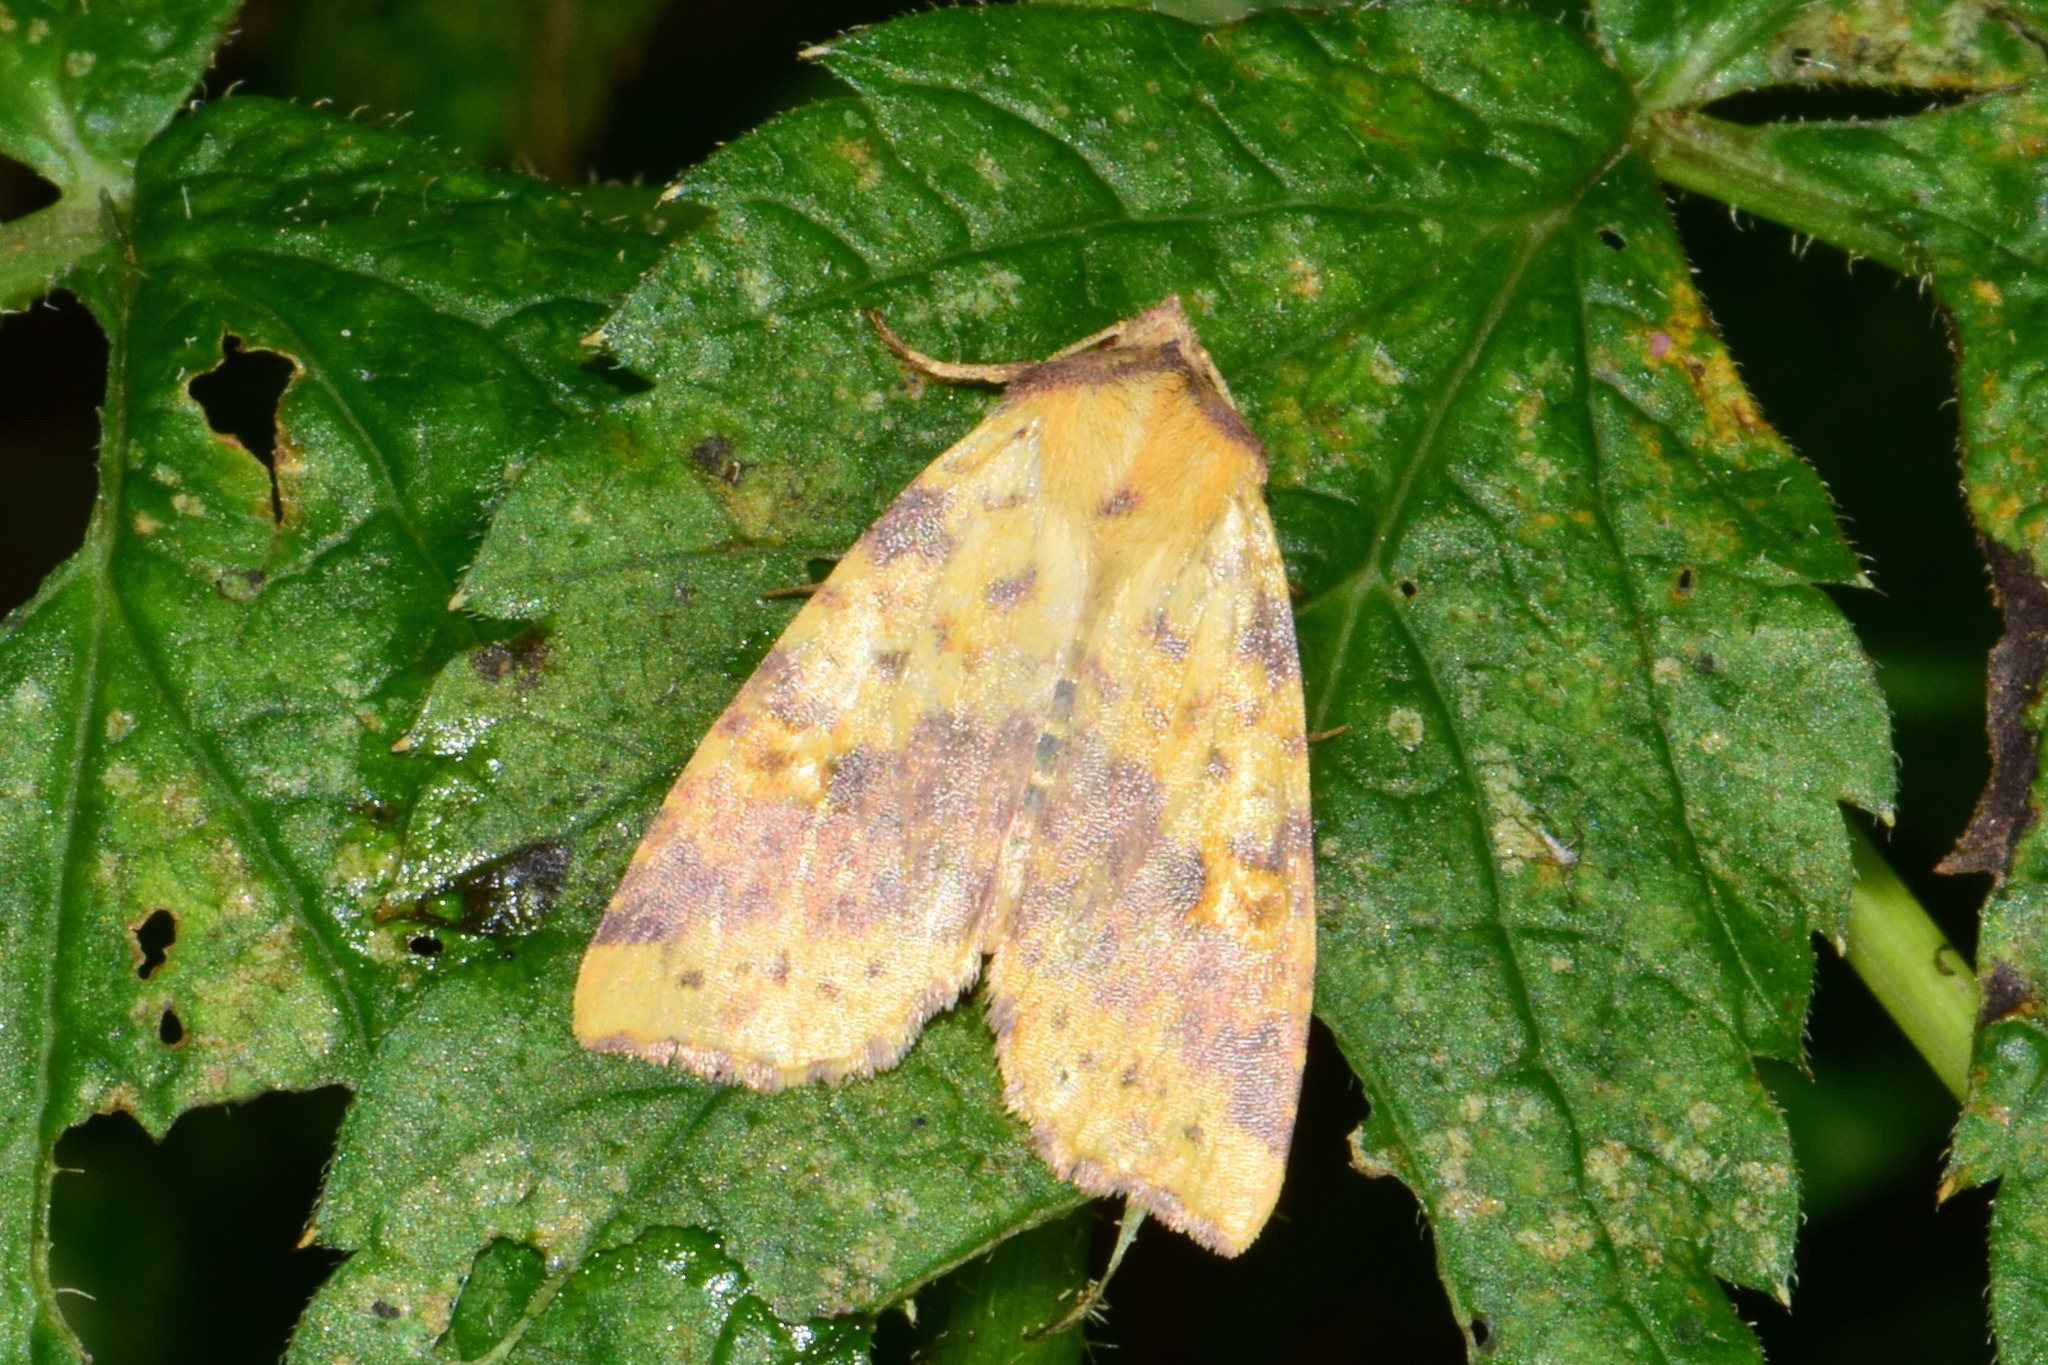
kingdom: Animalia
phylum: Arthropoda
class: Insecta
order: Lepidoptera
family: Noctuidae
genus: Xanthia
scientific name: Xanthia togata
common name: Pink-barred sallow
